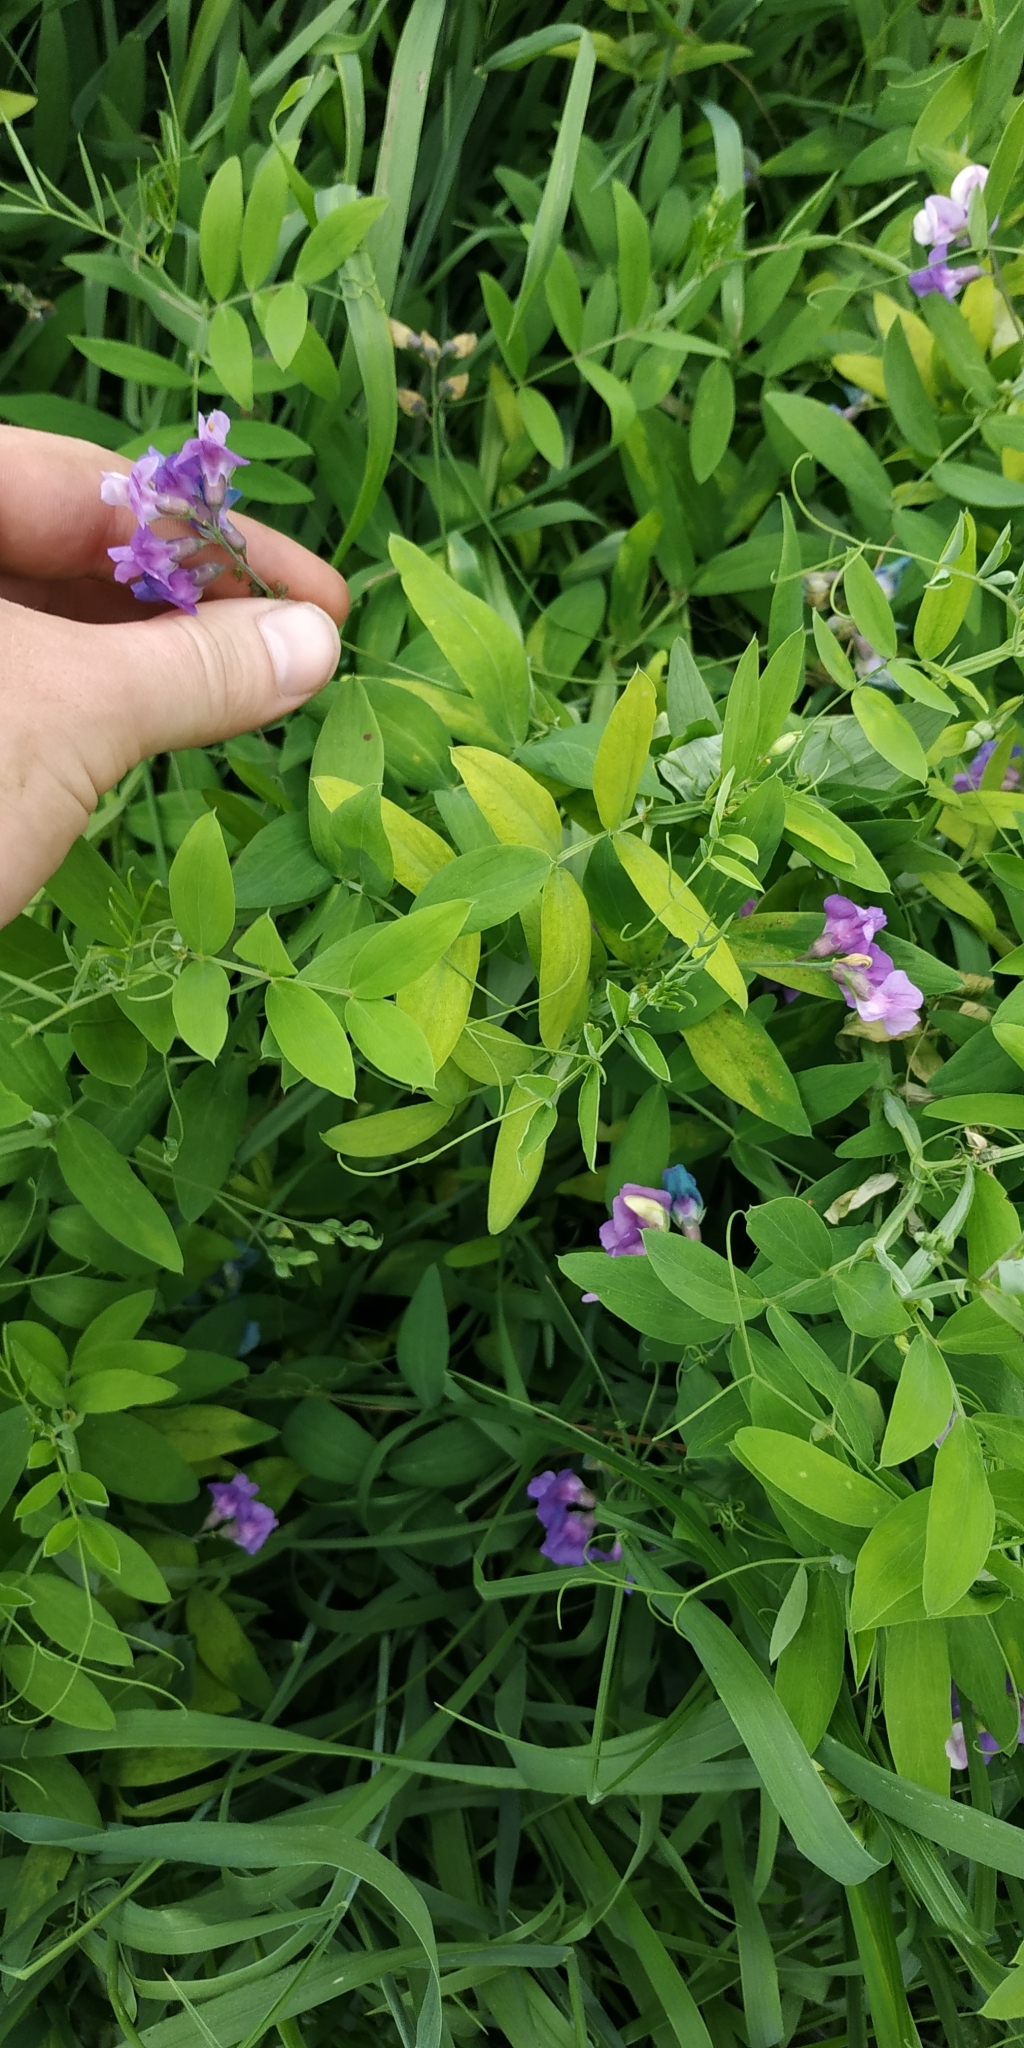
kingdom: Plantae
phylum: Tracheophyta
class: Magnoliopsida
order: Fabales
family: Fabaceae
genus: Lathyrus
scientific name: Lathyrus palustris
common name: Marsh pea
